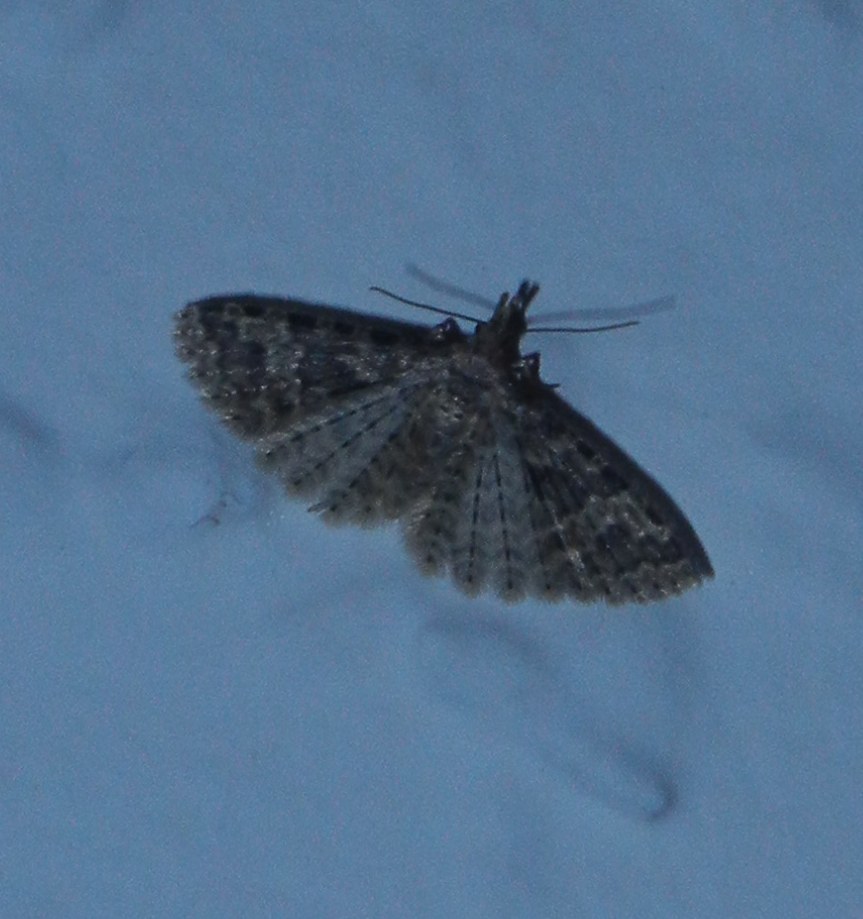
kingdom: Animalia
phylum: Arthropoda
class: Insecta
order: Lepidoptera
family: Alucitidae
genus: Alucita
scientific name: Alucita hexadactyla
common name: Twenty-plume moth
